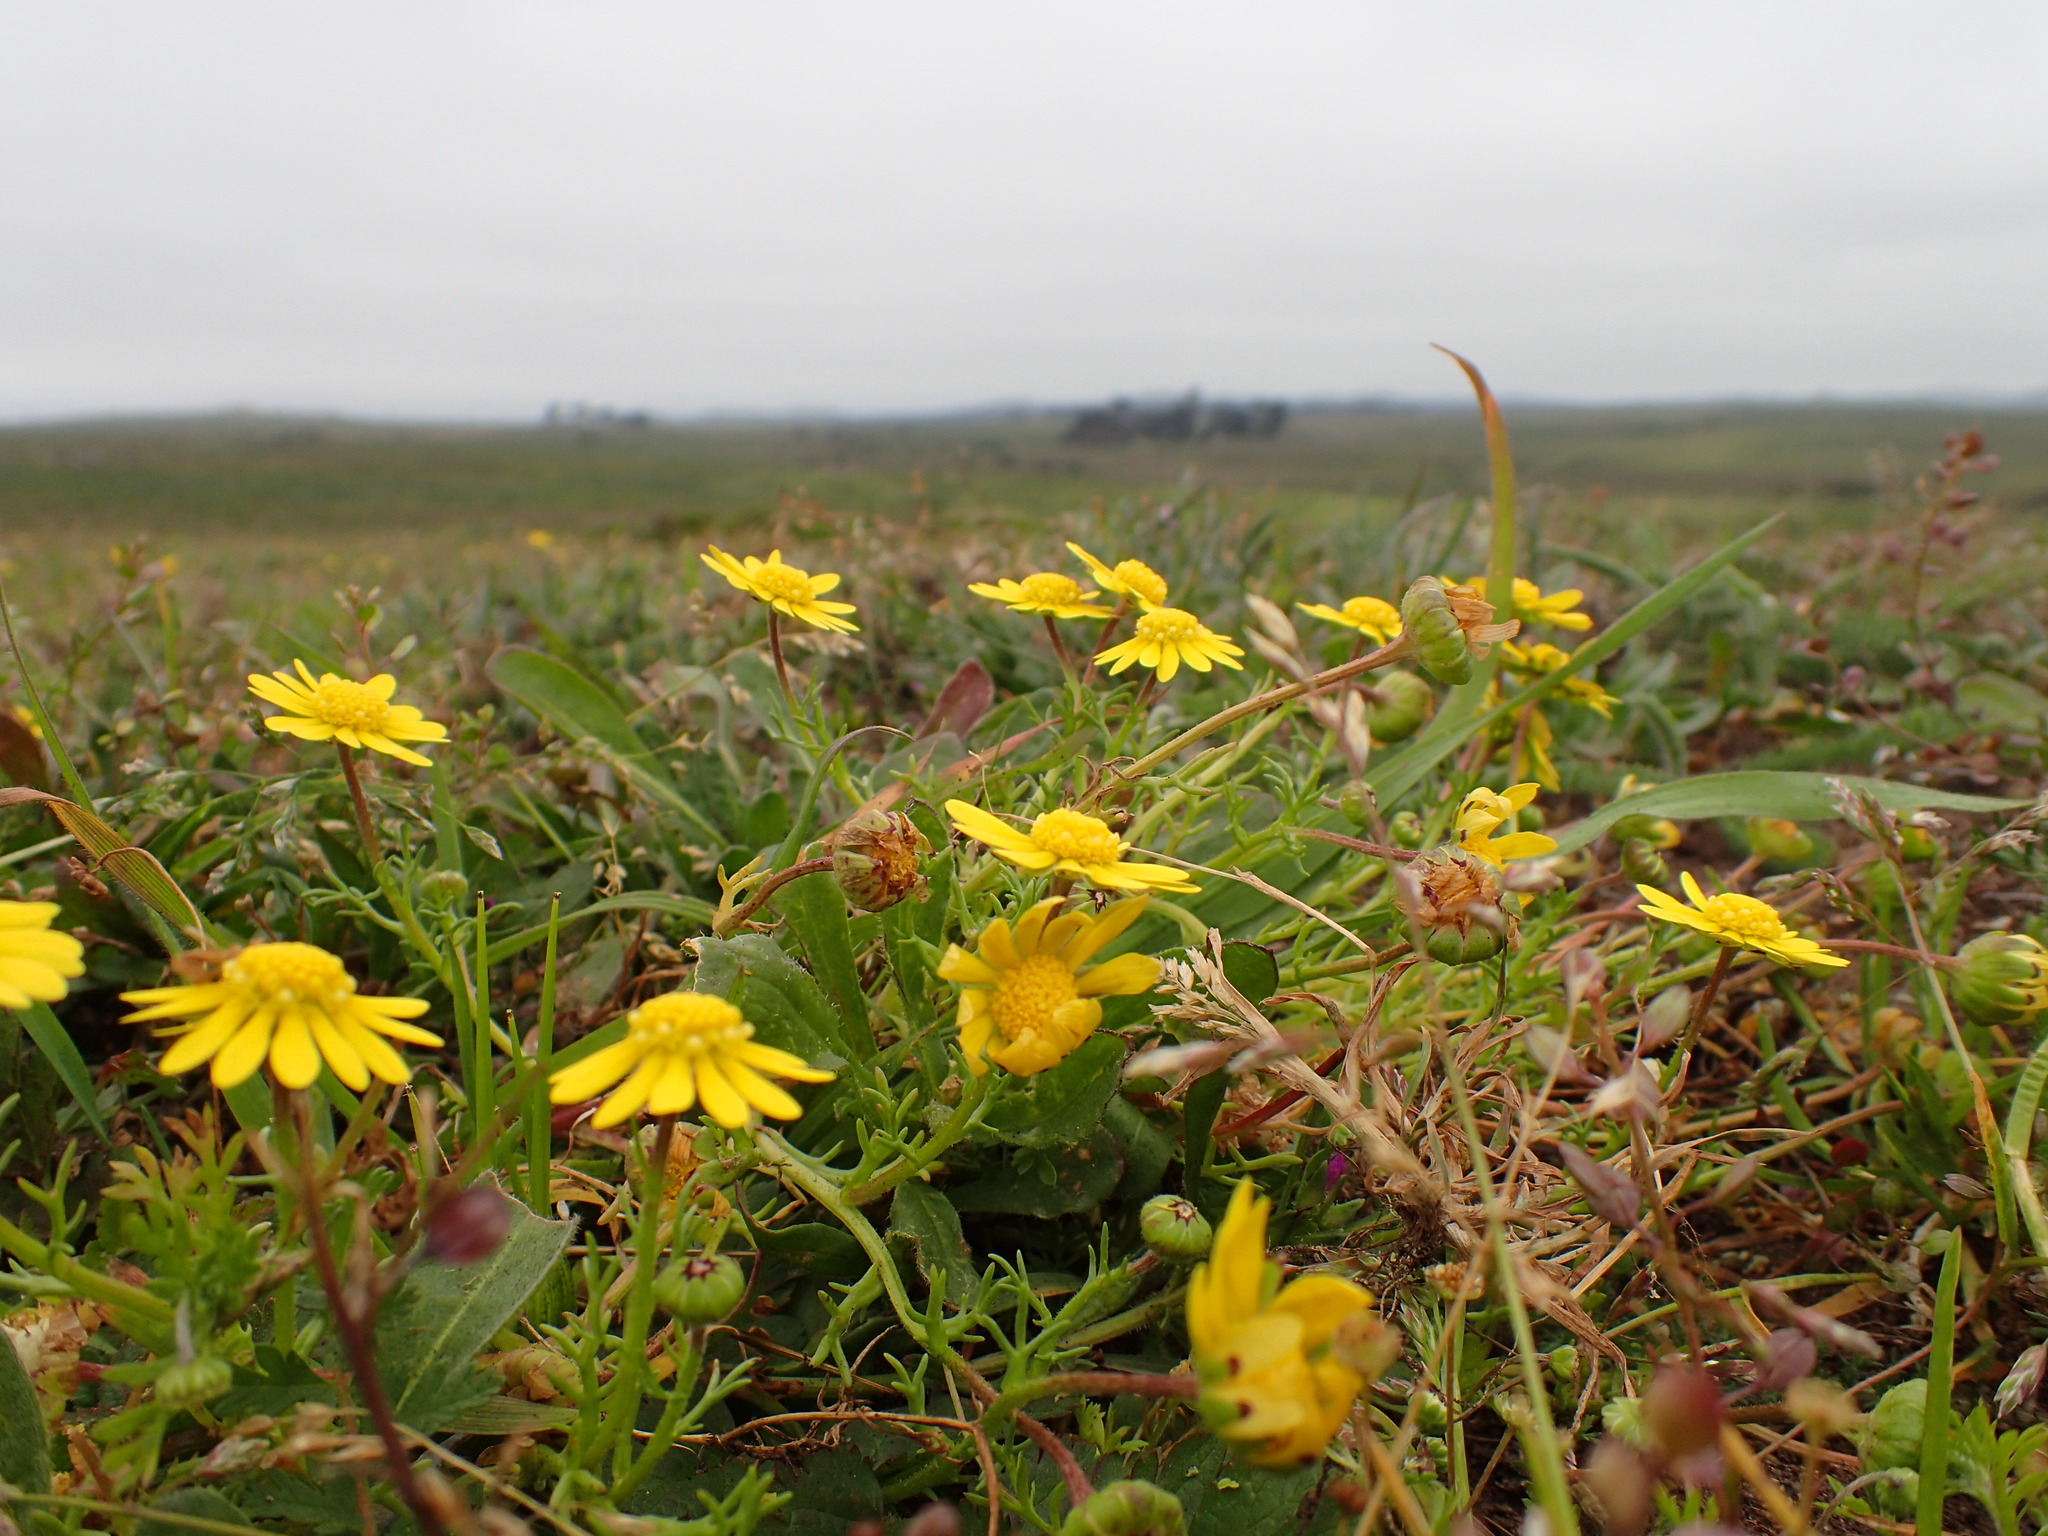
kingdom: Plantae
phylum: Tracheophyta
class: Magnoliopsida
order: Asterales
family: Asteraceae
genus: Blennosperma
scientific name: Blennosperma nanum
